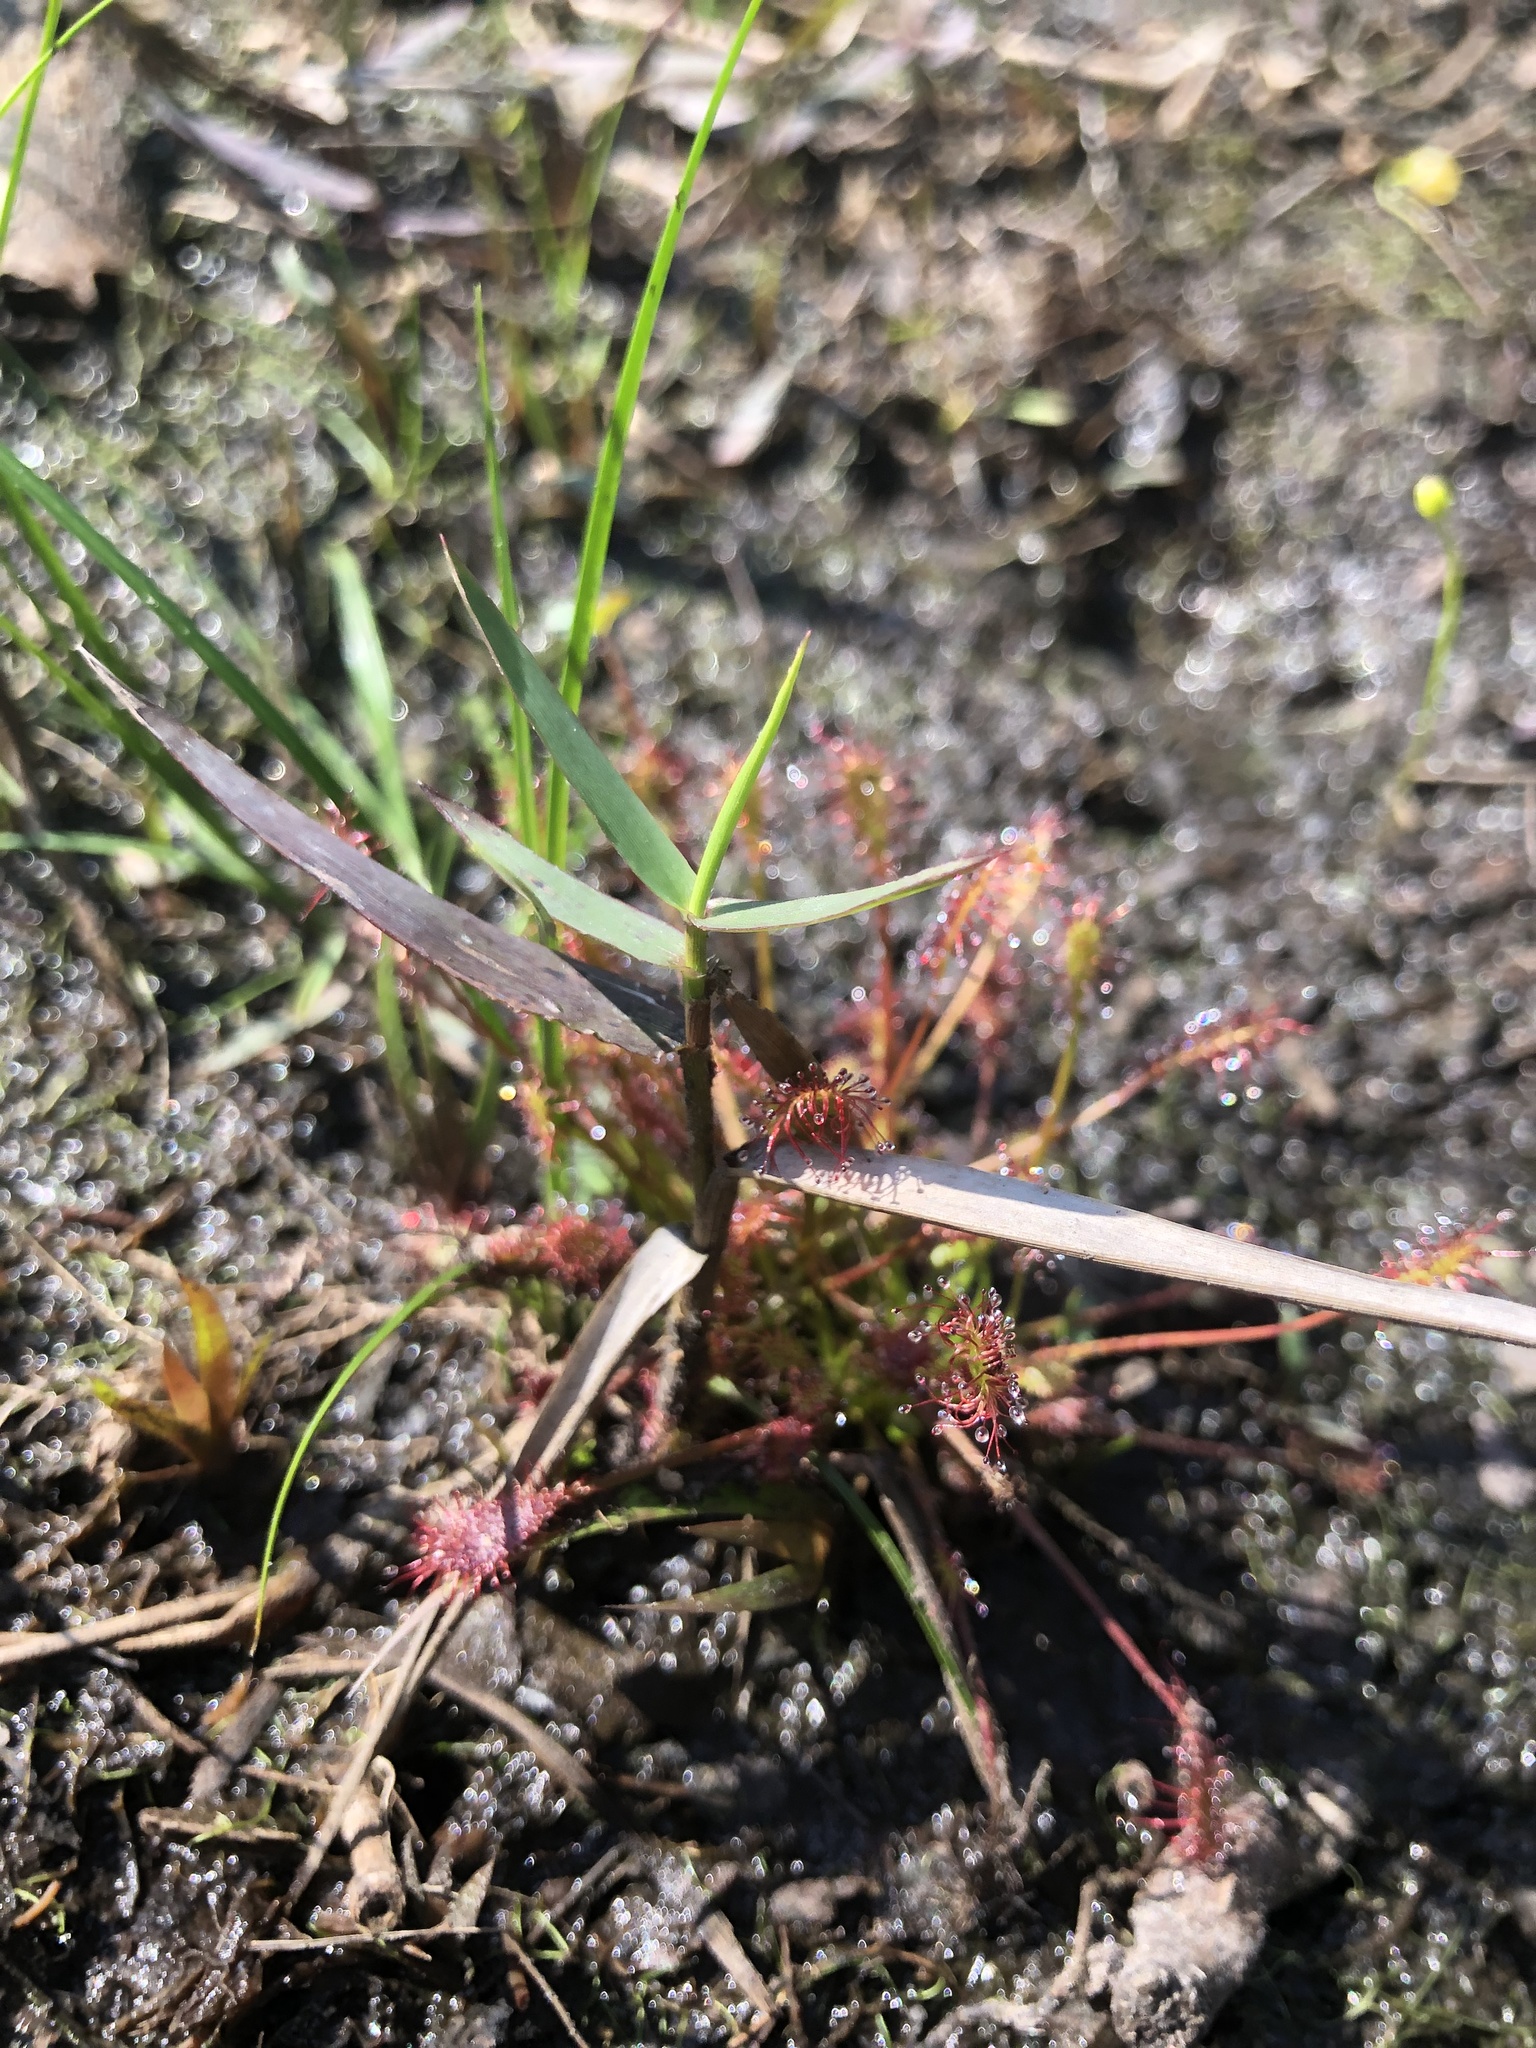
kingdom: Plantae
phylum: Tracheophyta
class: Magnoliopsida
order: Caryophyllales
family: Droseraceae
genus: Drosera
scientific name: Drosera intermedia
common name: Oblong-leaved sundew
